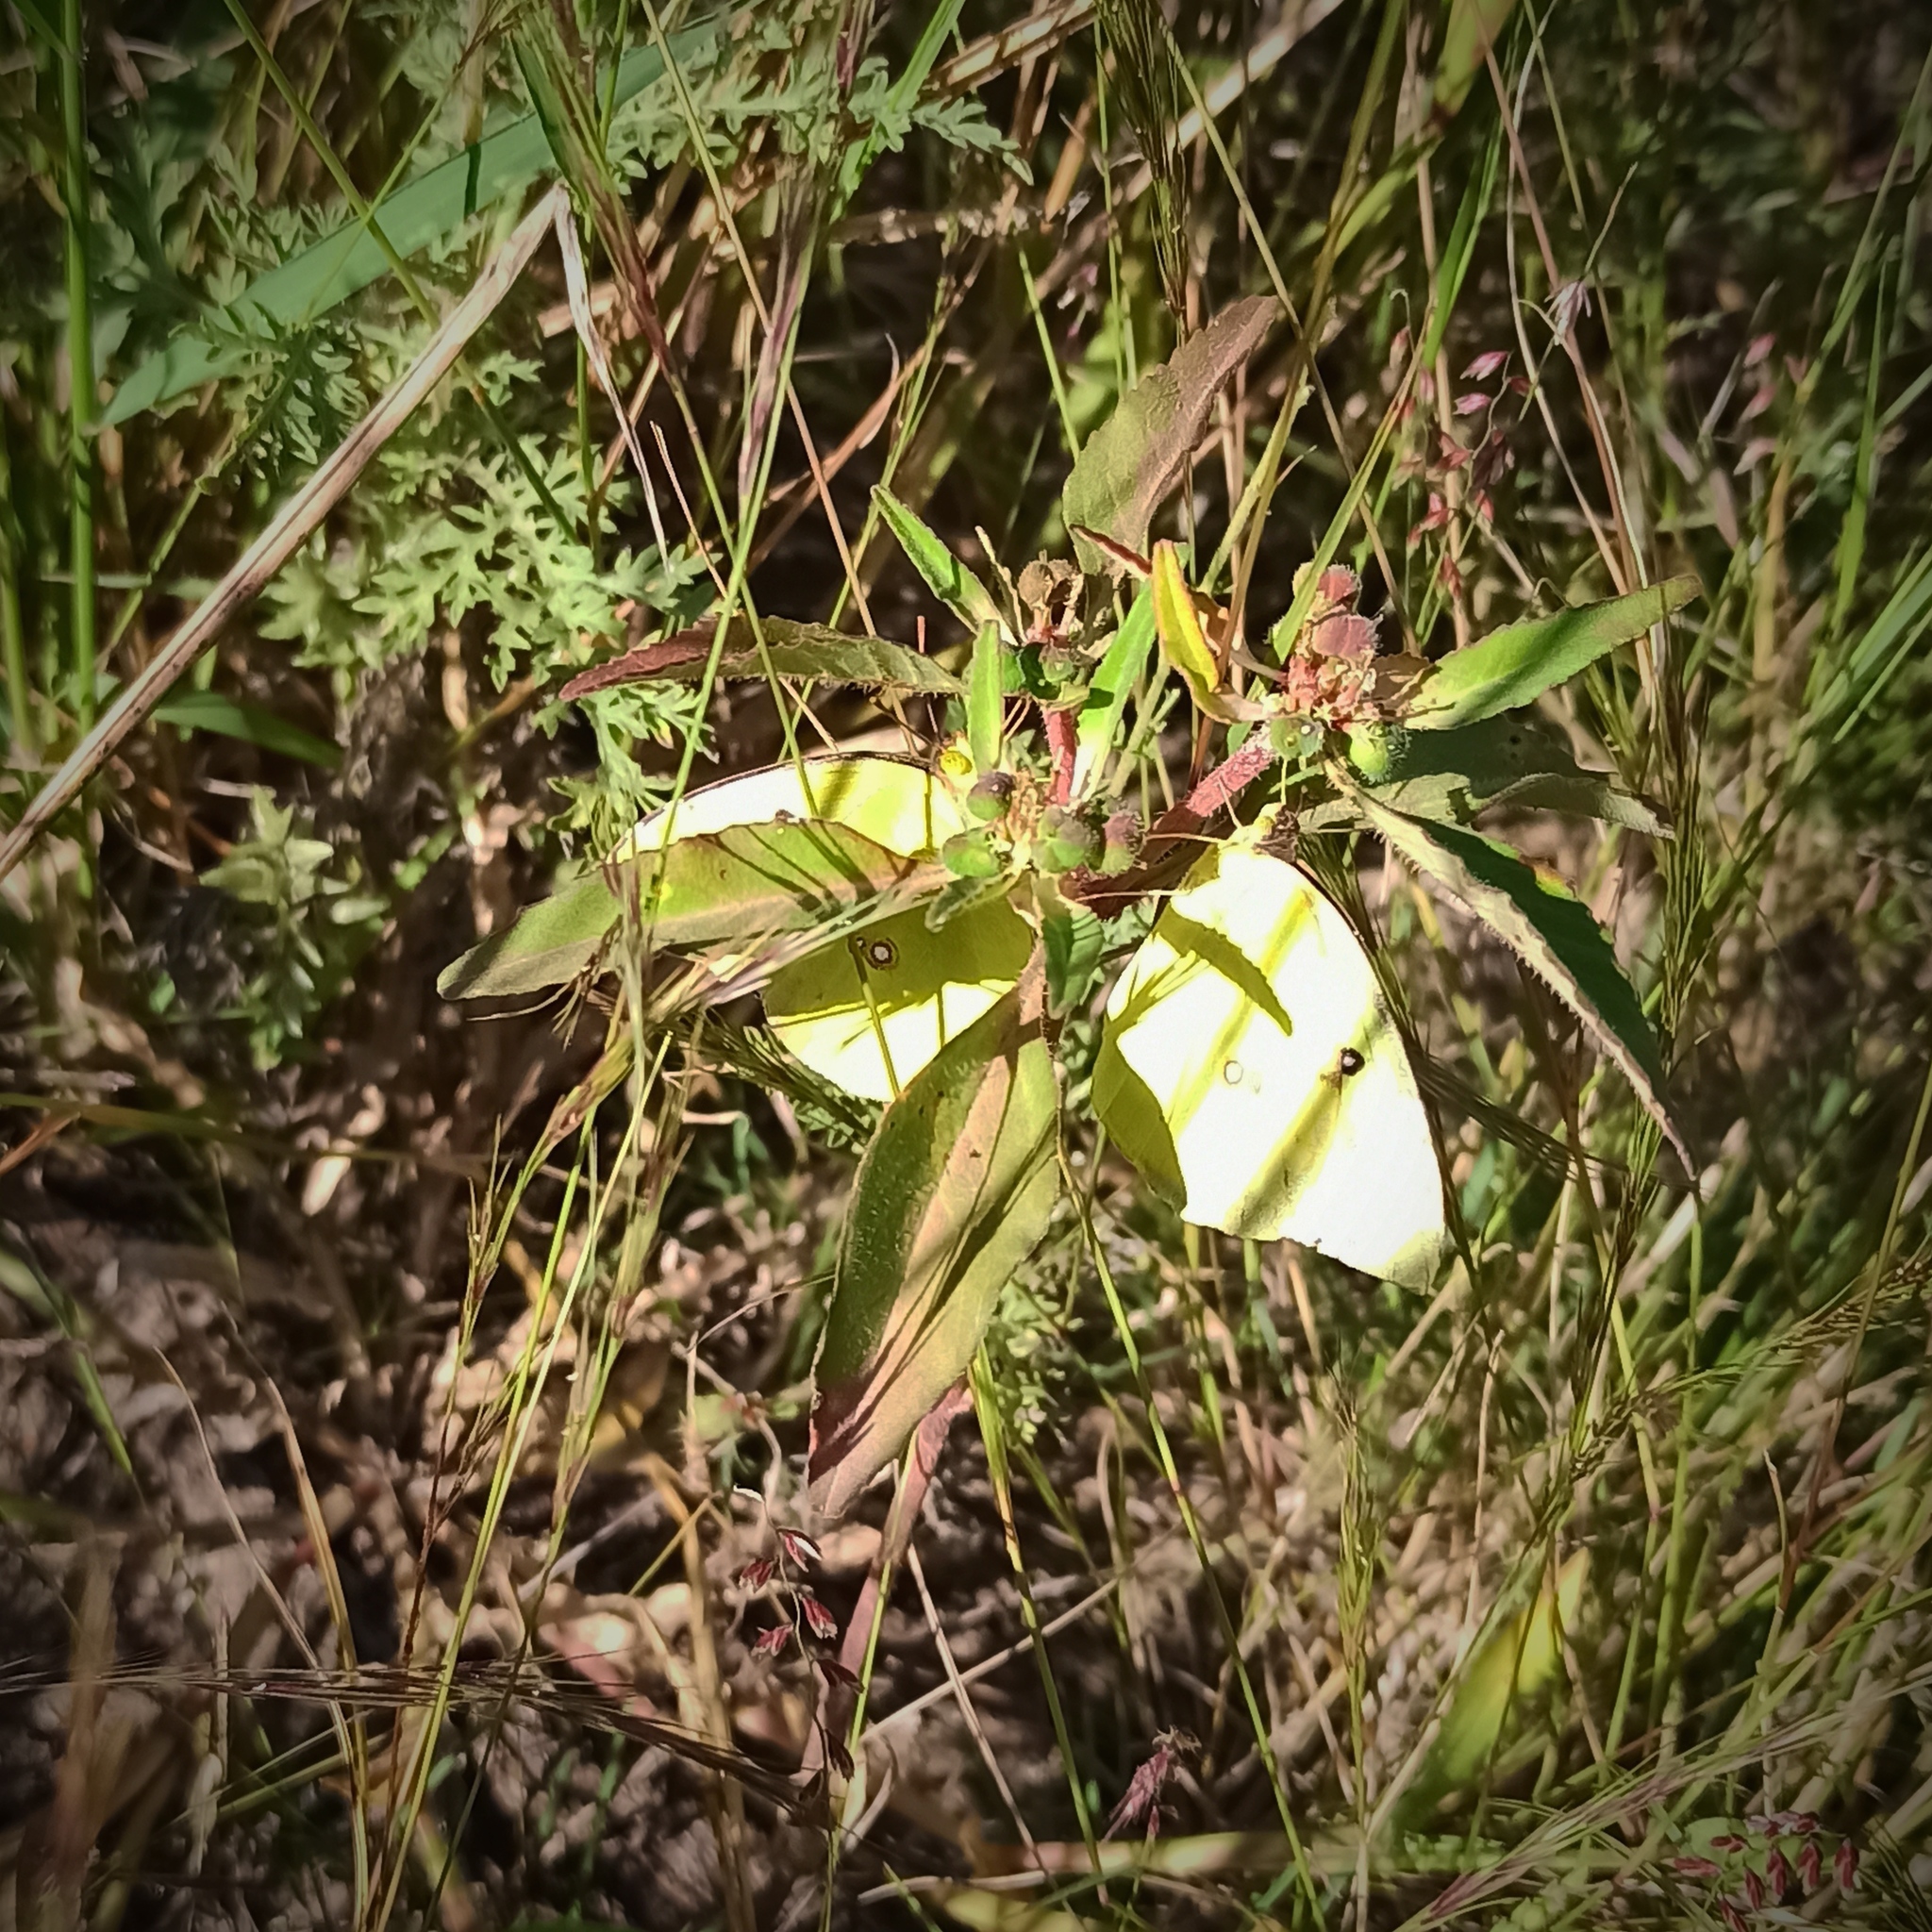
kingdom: Animalia
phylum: Arthropoda
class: Insecta
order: Lepidoptera
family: Pieridae
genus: Zerene
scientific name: Zerene cesonia
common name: Southern dogface
